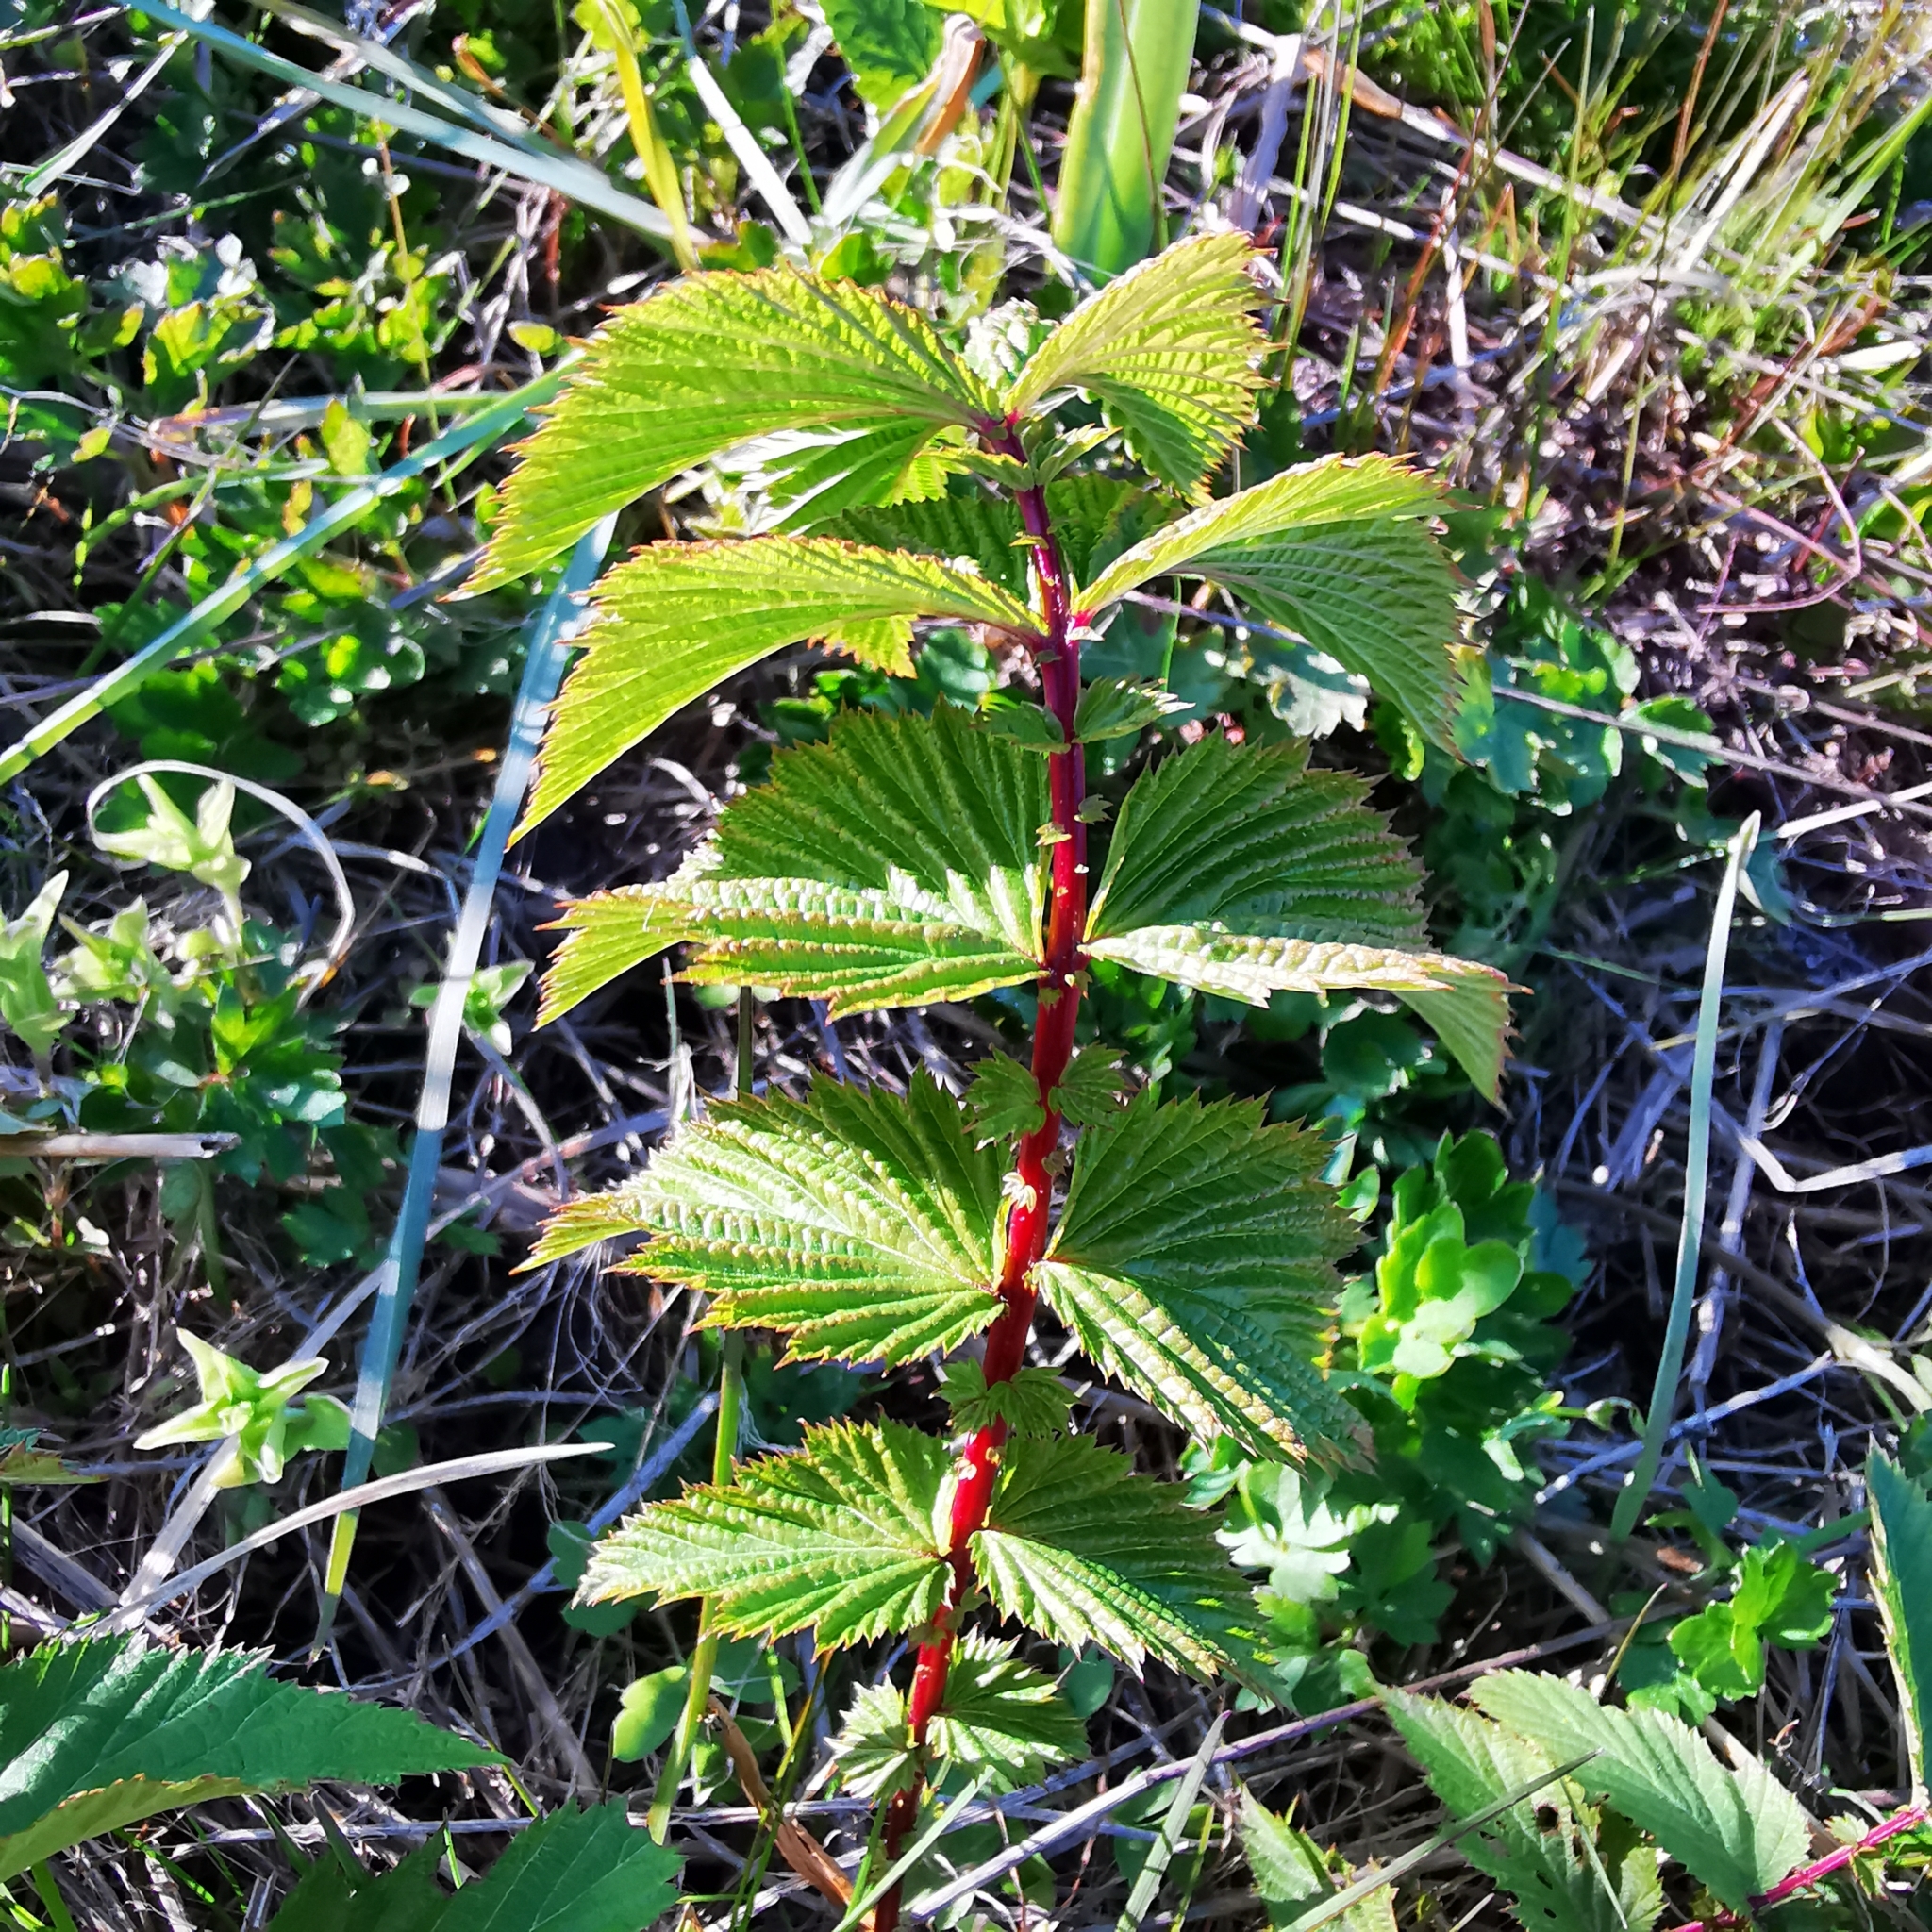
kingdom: Plantae
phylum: Tracheophyta
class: Magnoliopsida
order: Rosales
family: Rosaceae
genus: Filipendula
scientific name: Filipendula ulmaria
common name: Meadowsweet
